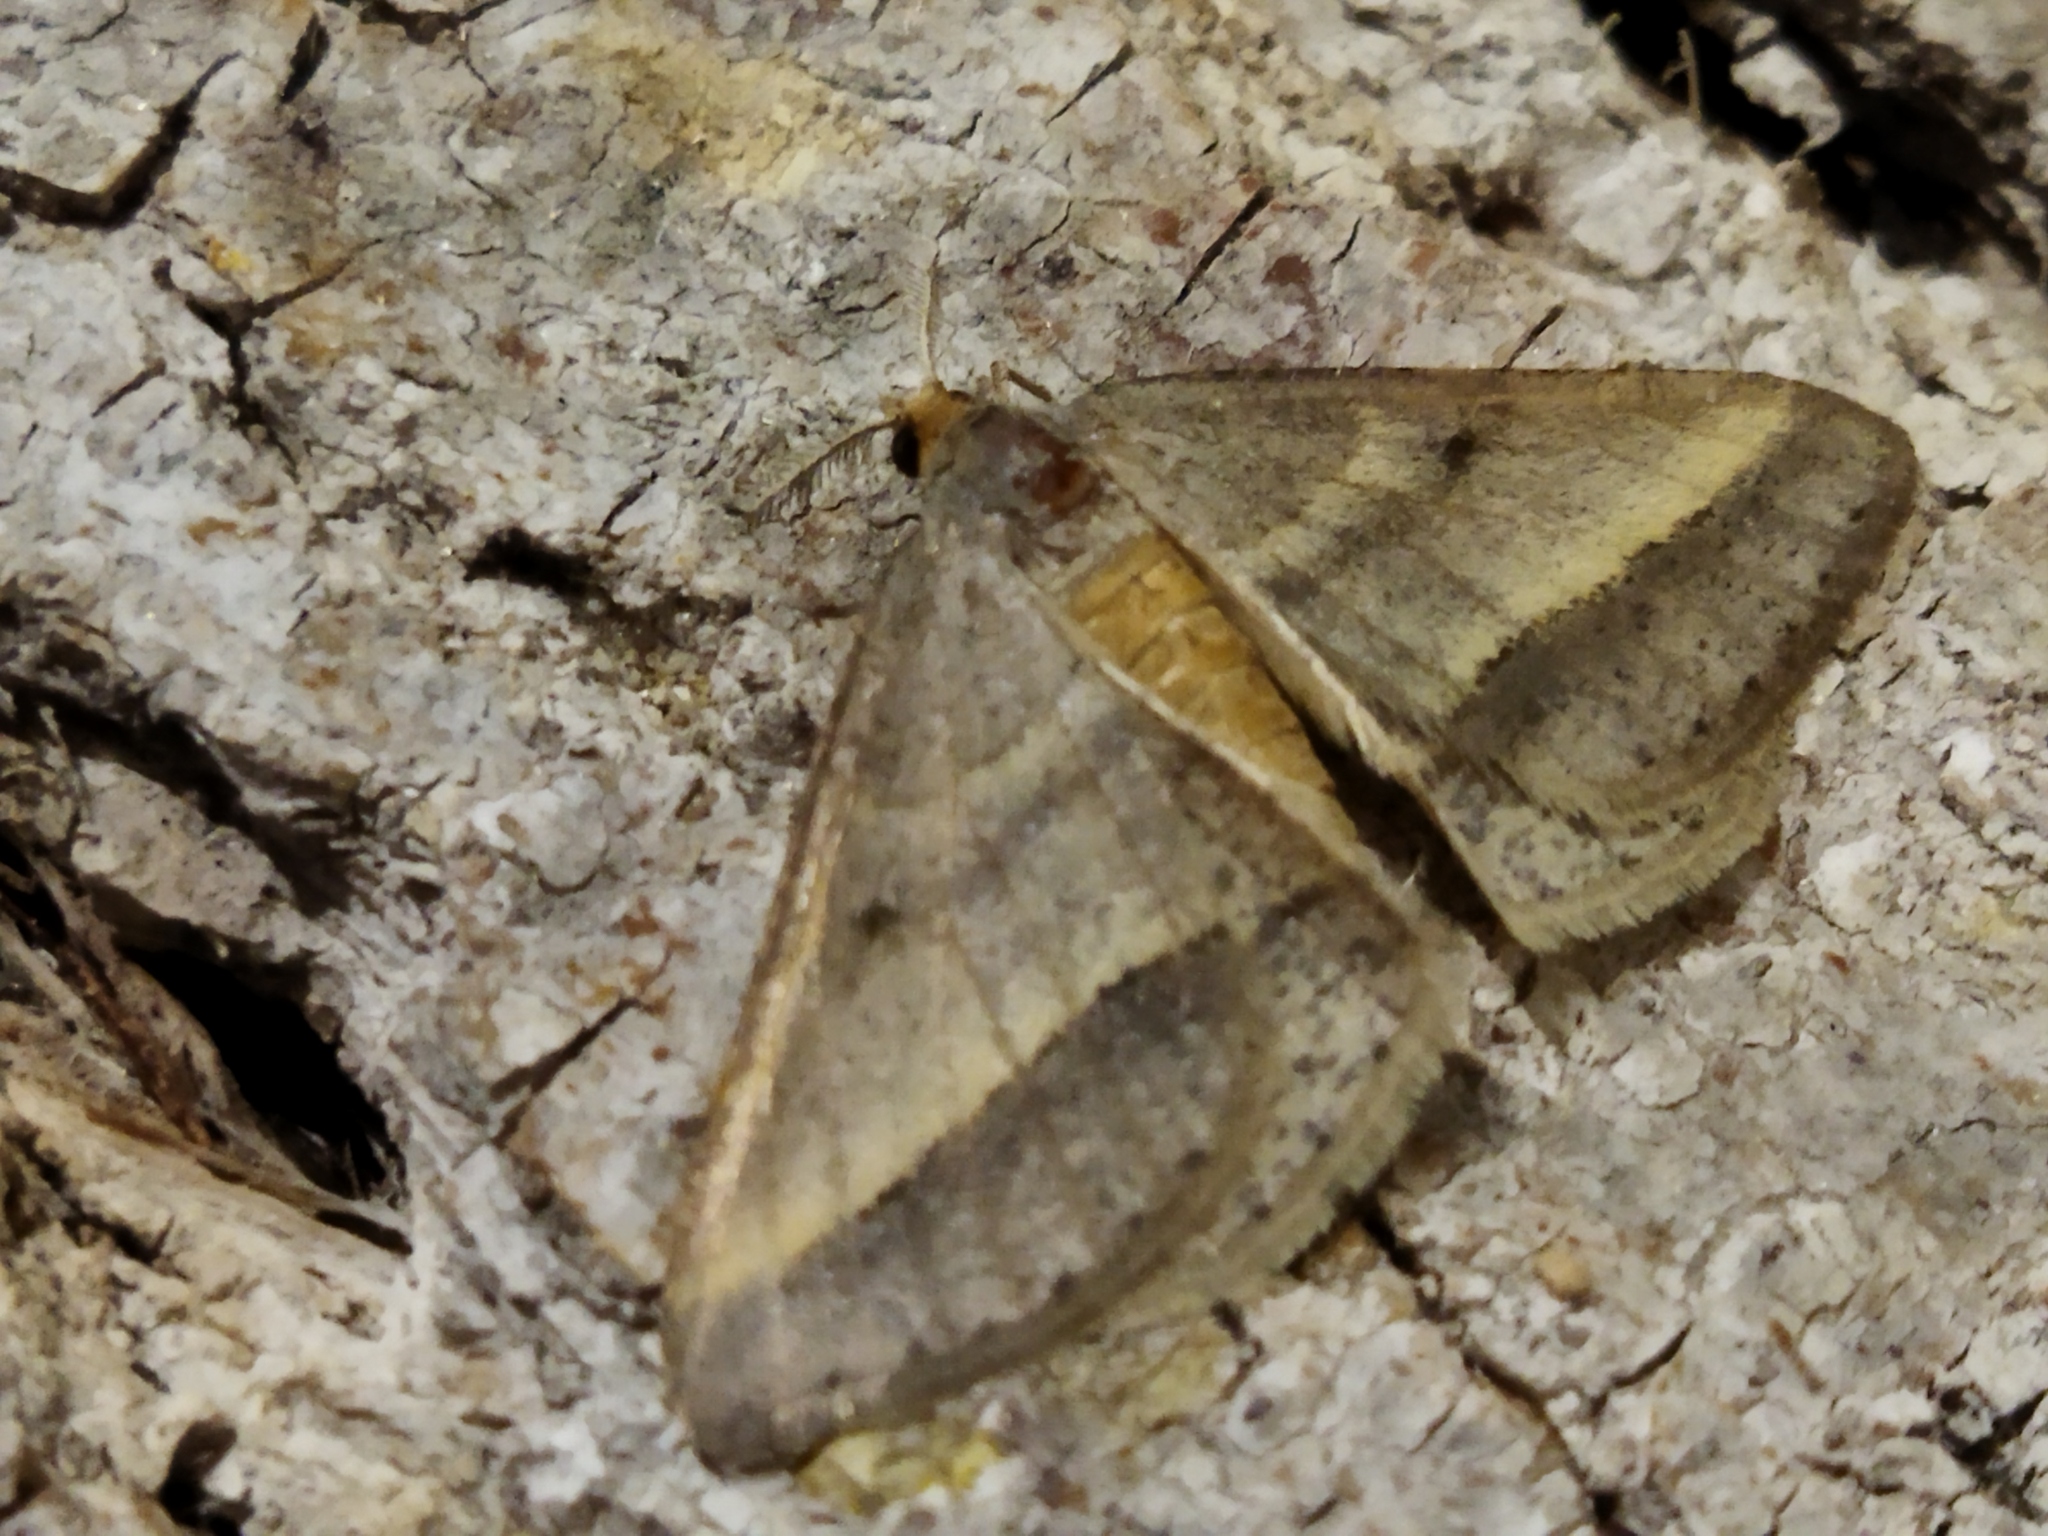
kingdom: Animalia
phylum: Arthropoda
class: Insecta
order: Lepidoptera
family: Geometridae
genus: Tephrina
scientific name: Tephrina arenacearia
